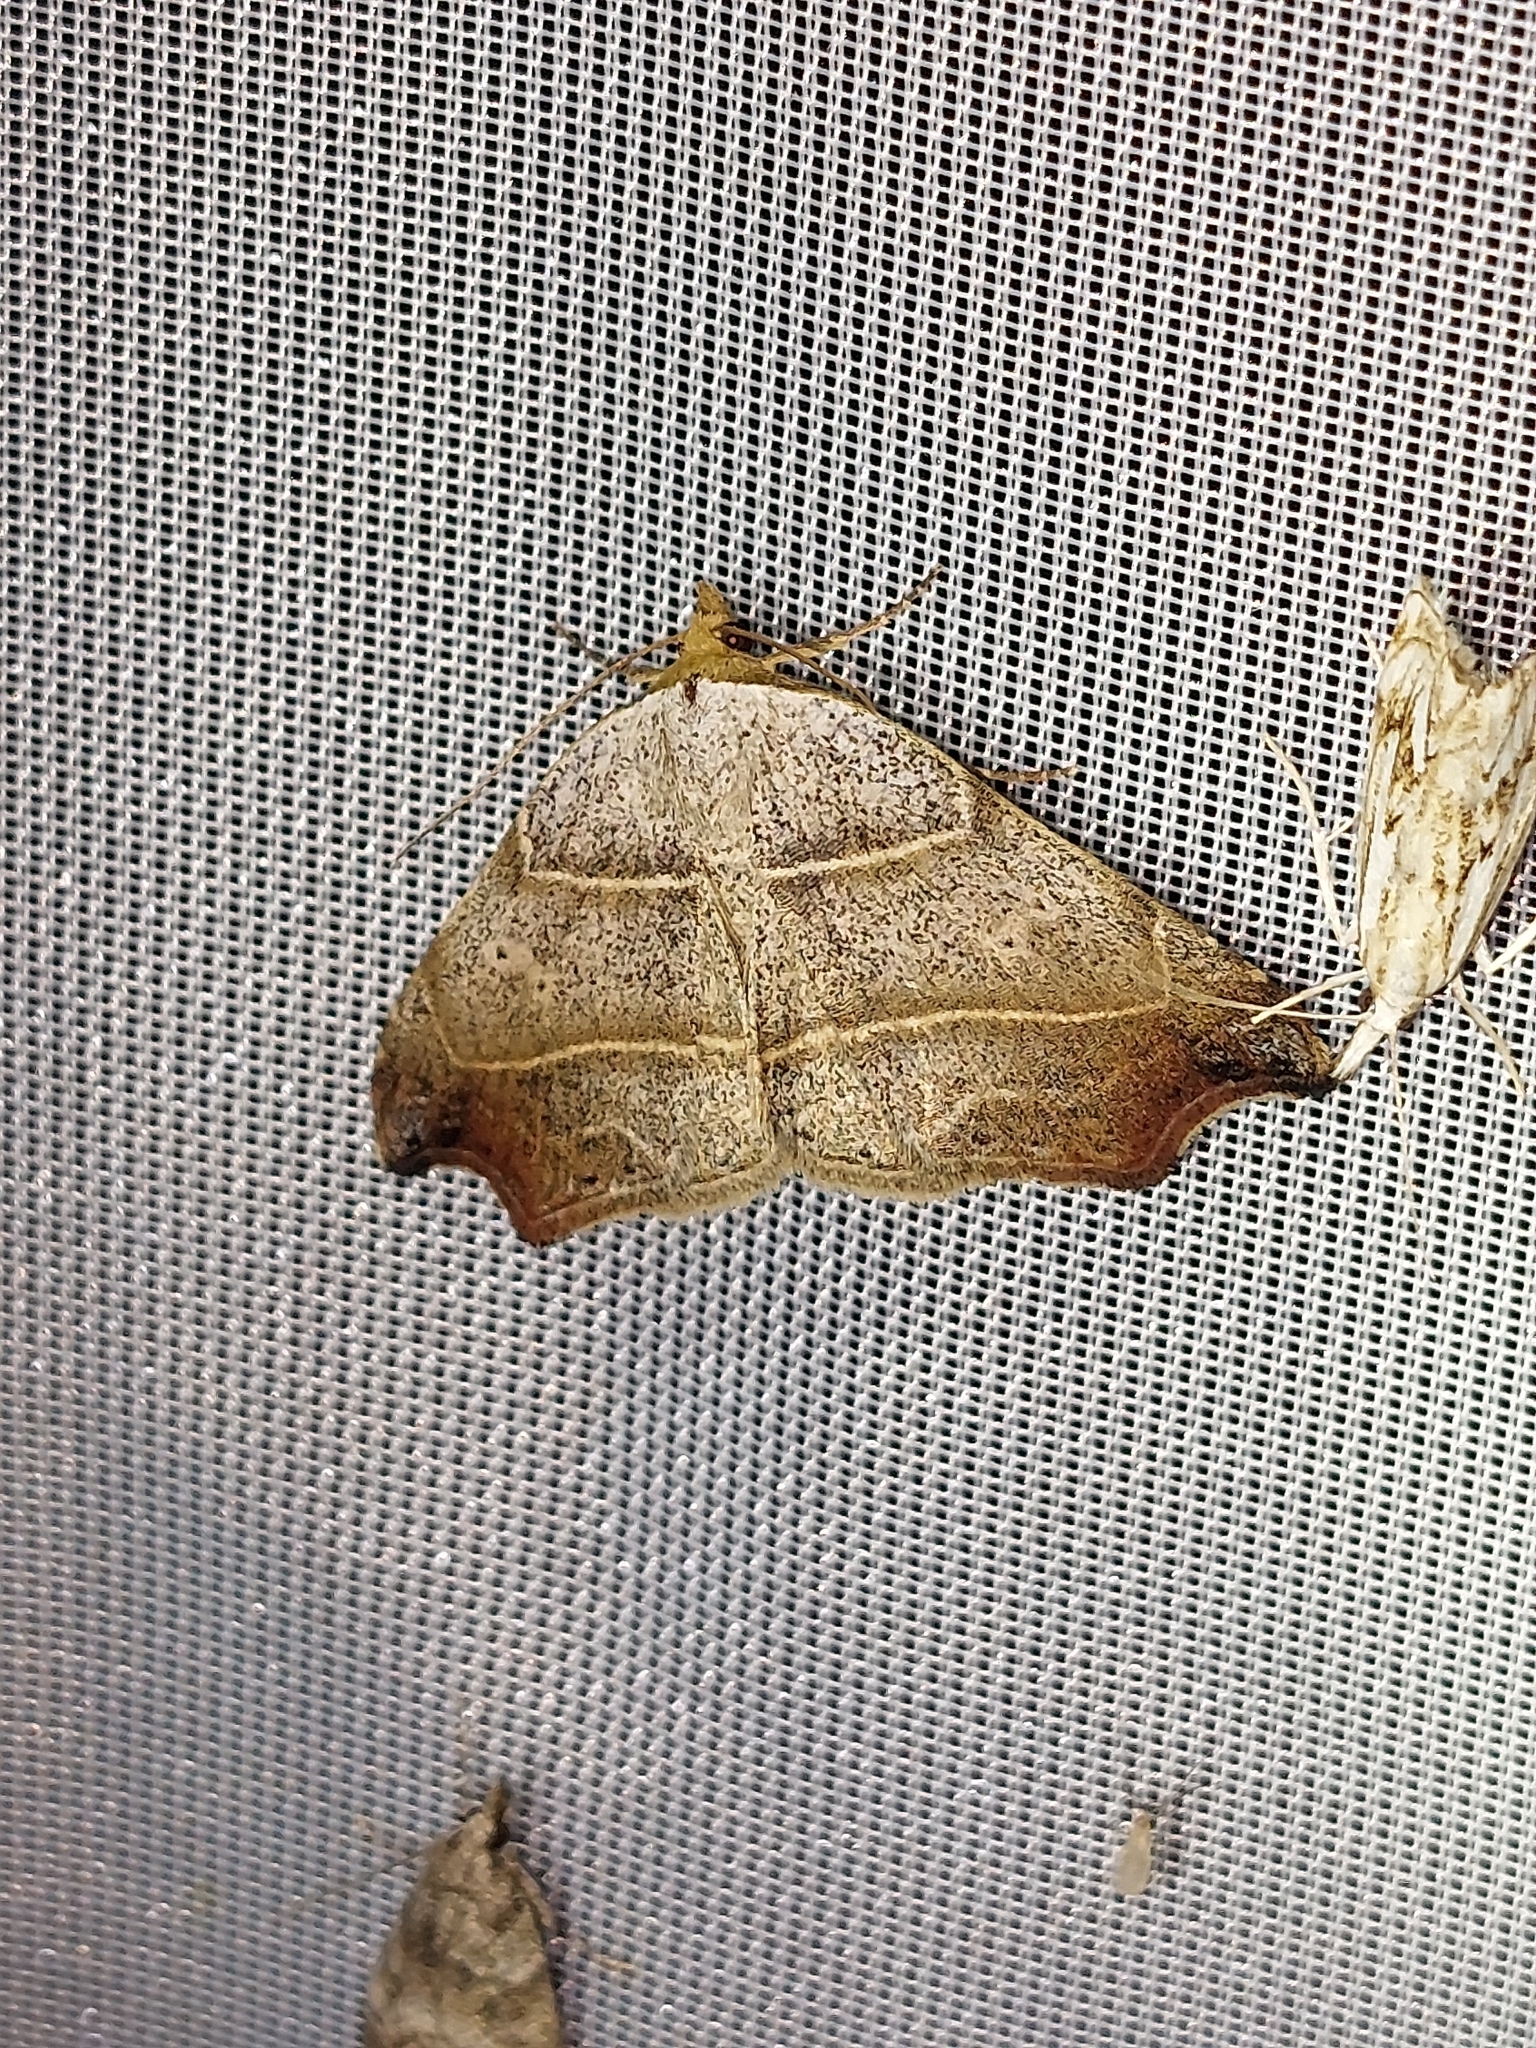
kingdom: Animalia
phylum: Arthropoda
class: Insecta
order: Lepidoptera
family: Erebidae
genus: Laspeyria
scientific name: Laspeyria flexula
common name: Beautiful hook-tip
